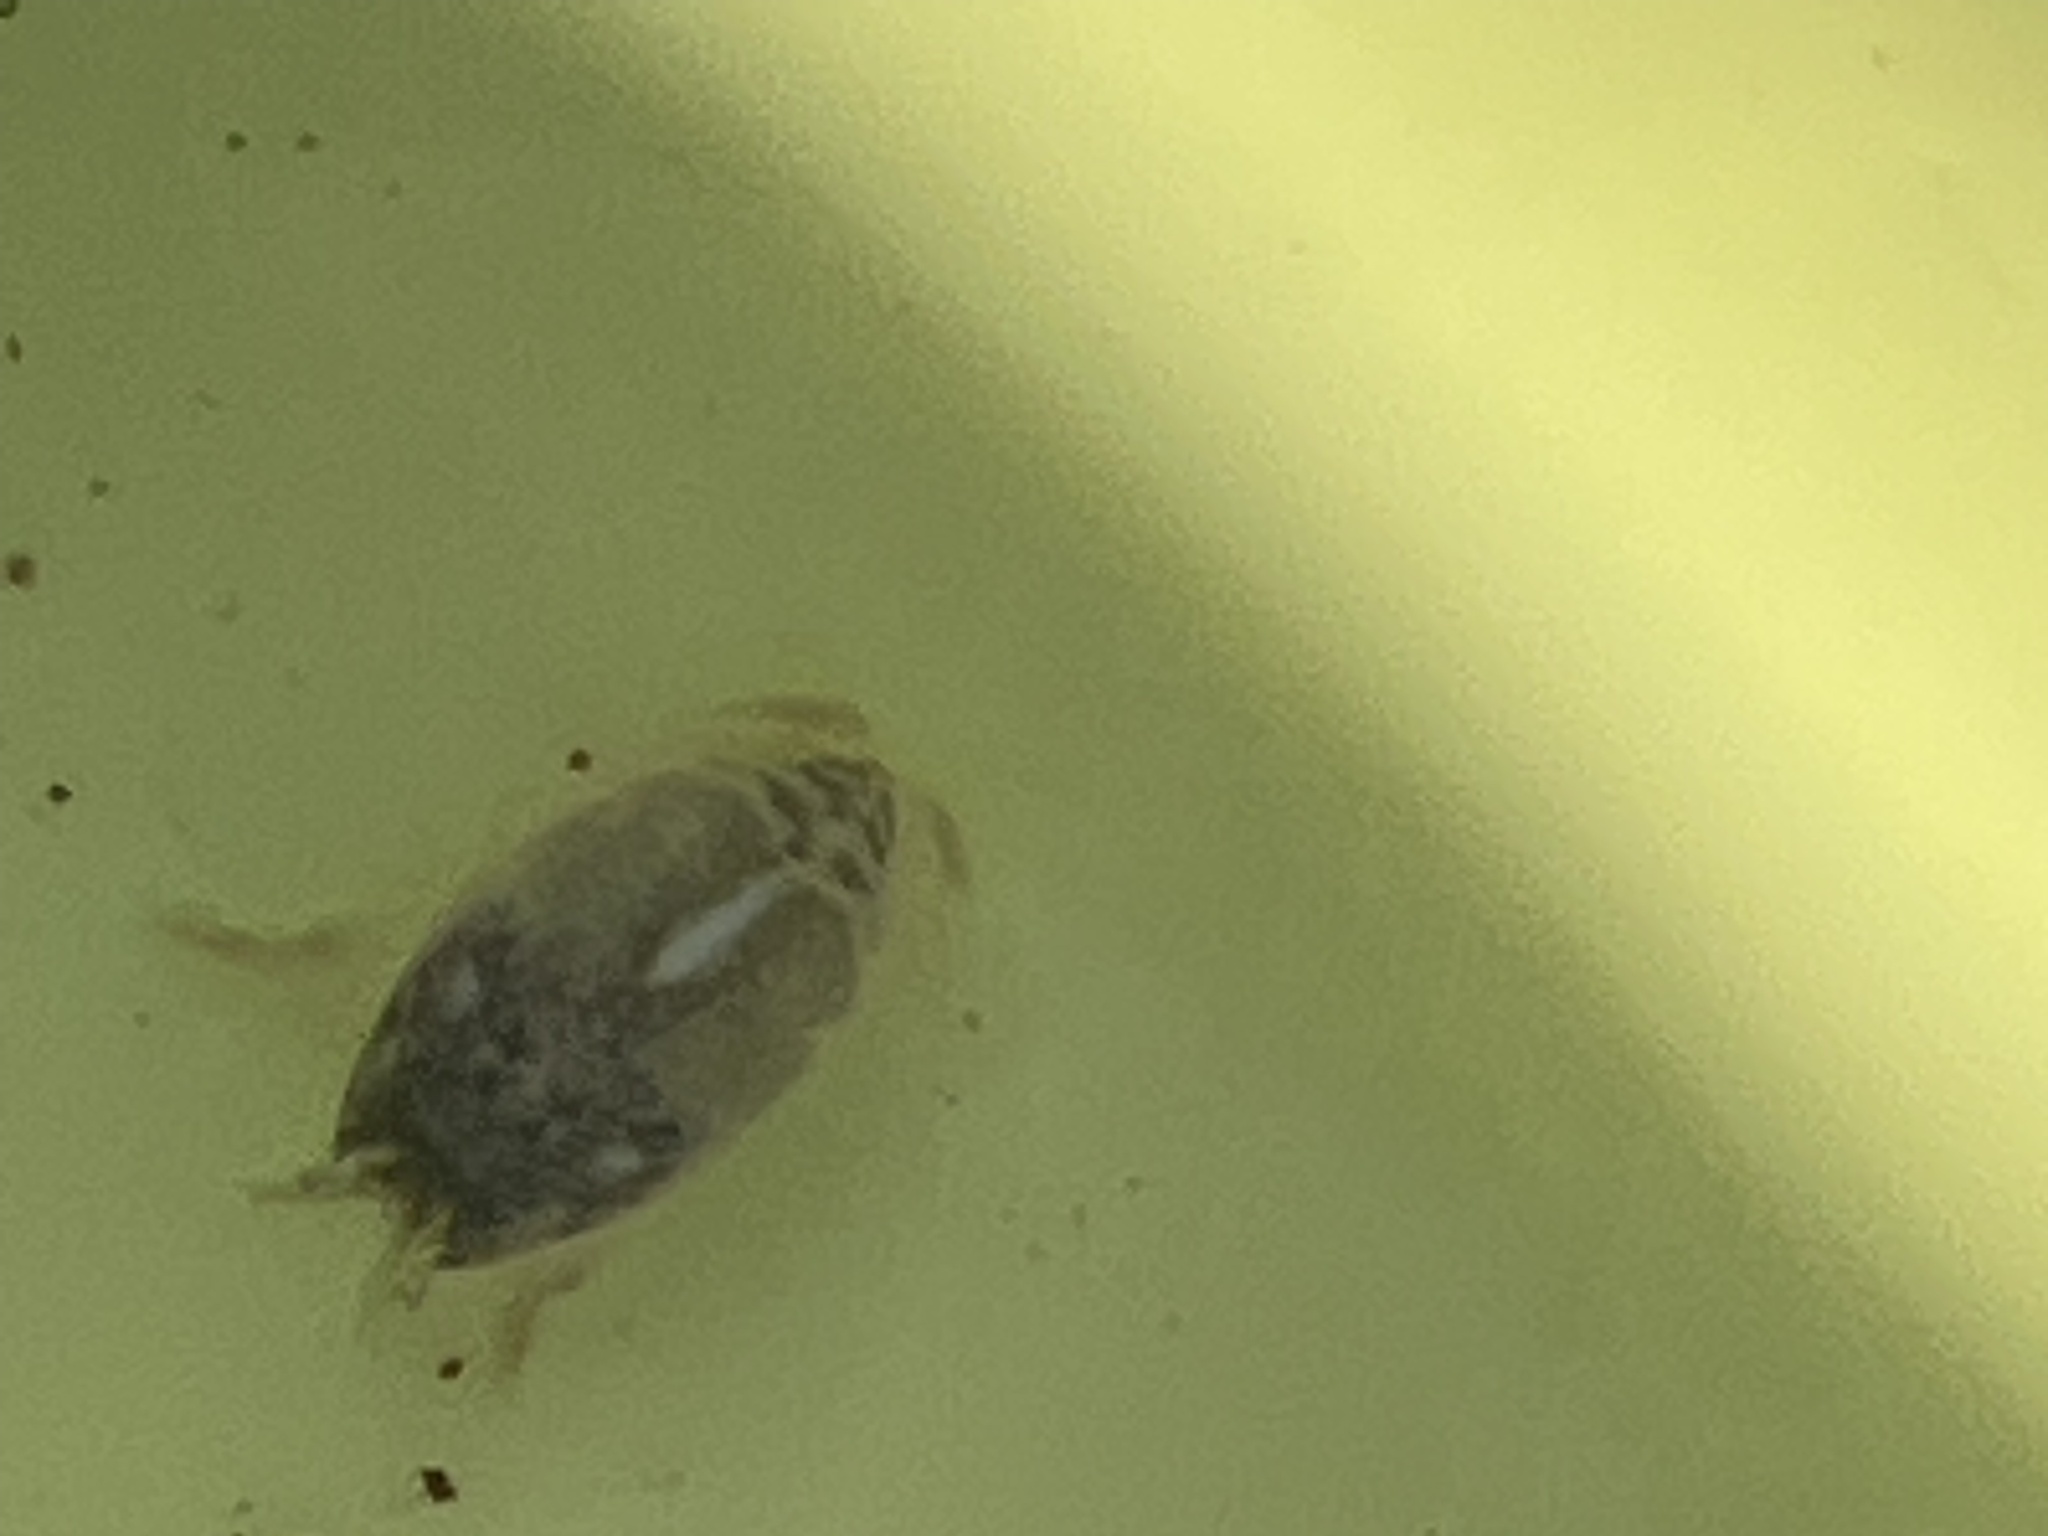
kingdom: Animalia
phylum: Arthropoda
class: Malacostraca
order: Decapoda
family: Hippidae
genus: Emerita
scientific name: Emerita analoga
